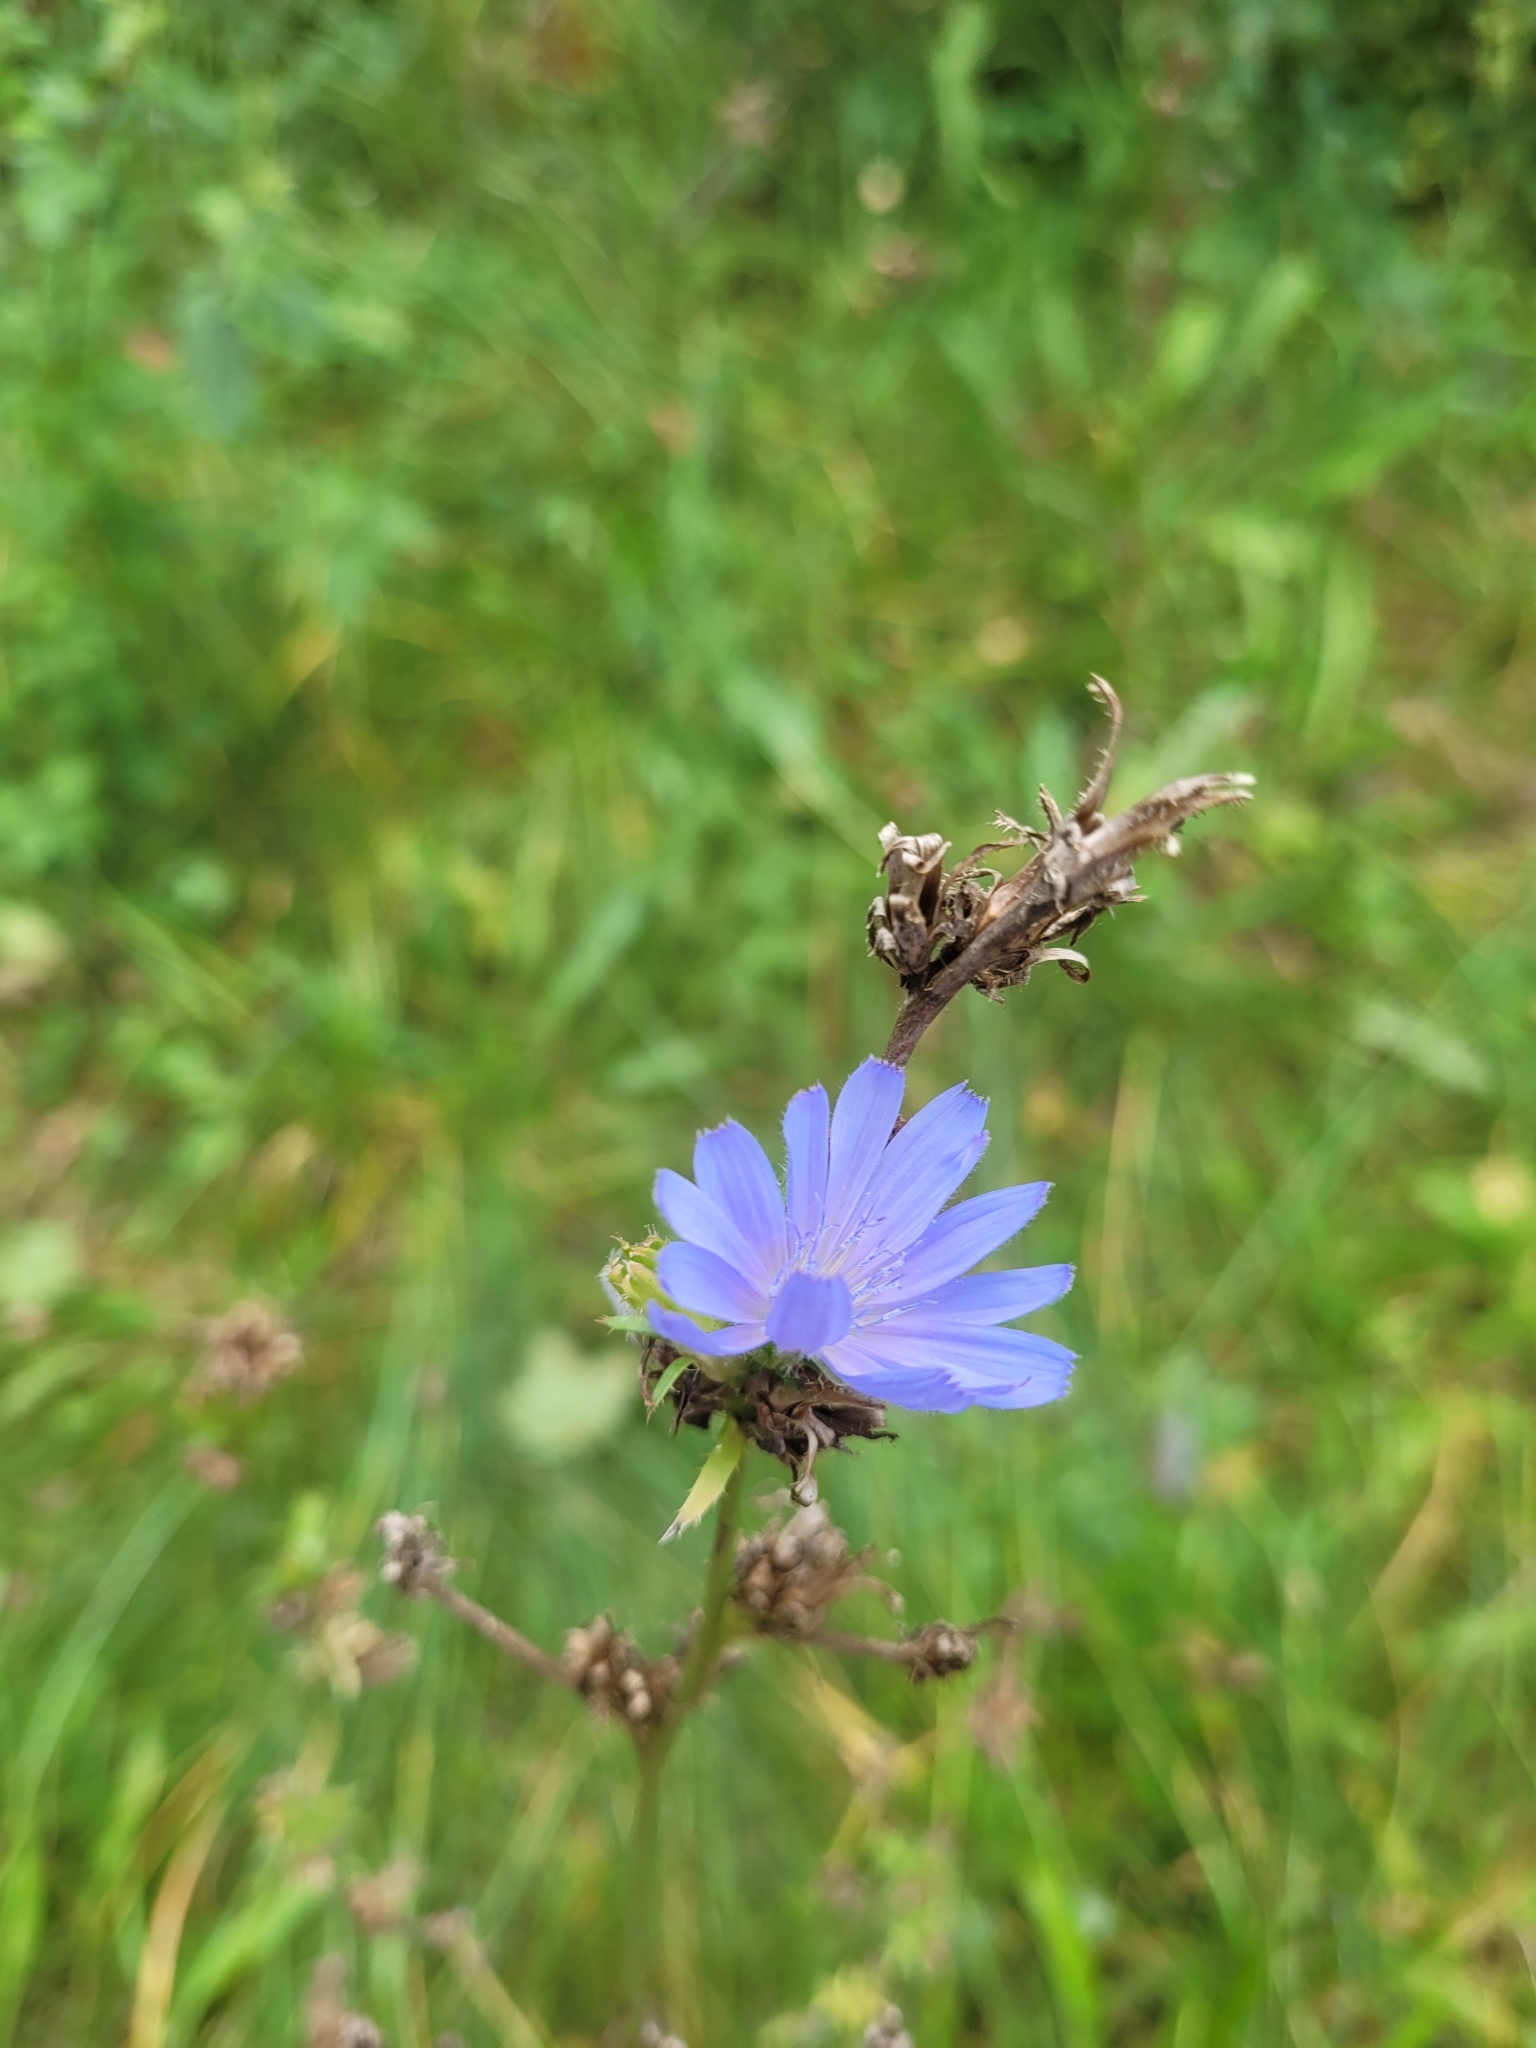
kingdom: Plantae
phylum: Tracheophyta
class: Magnoliopsida
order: Asterales
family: Asteraceae
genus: Cichorium
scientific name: Cichorium intybus
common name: Chicory
